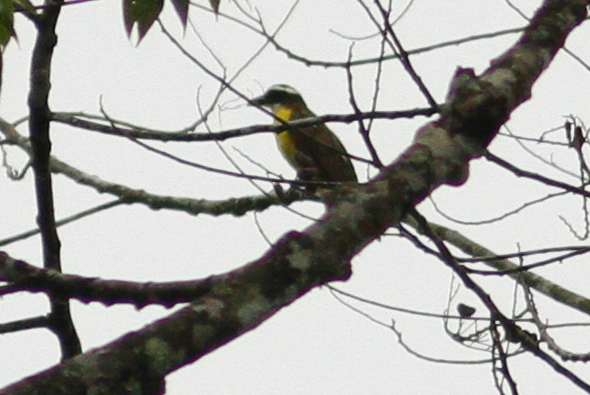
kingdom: Animalia
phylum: Chordata
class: Aves
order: Passeriformes
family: Tyrannidae
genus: Megarynchus
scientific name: Megarynchus pitangua
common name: Boat-billed flycatcher
